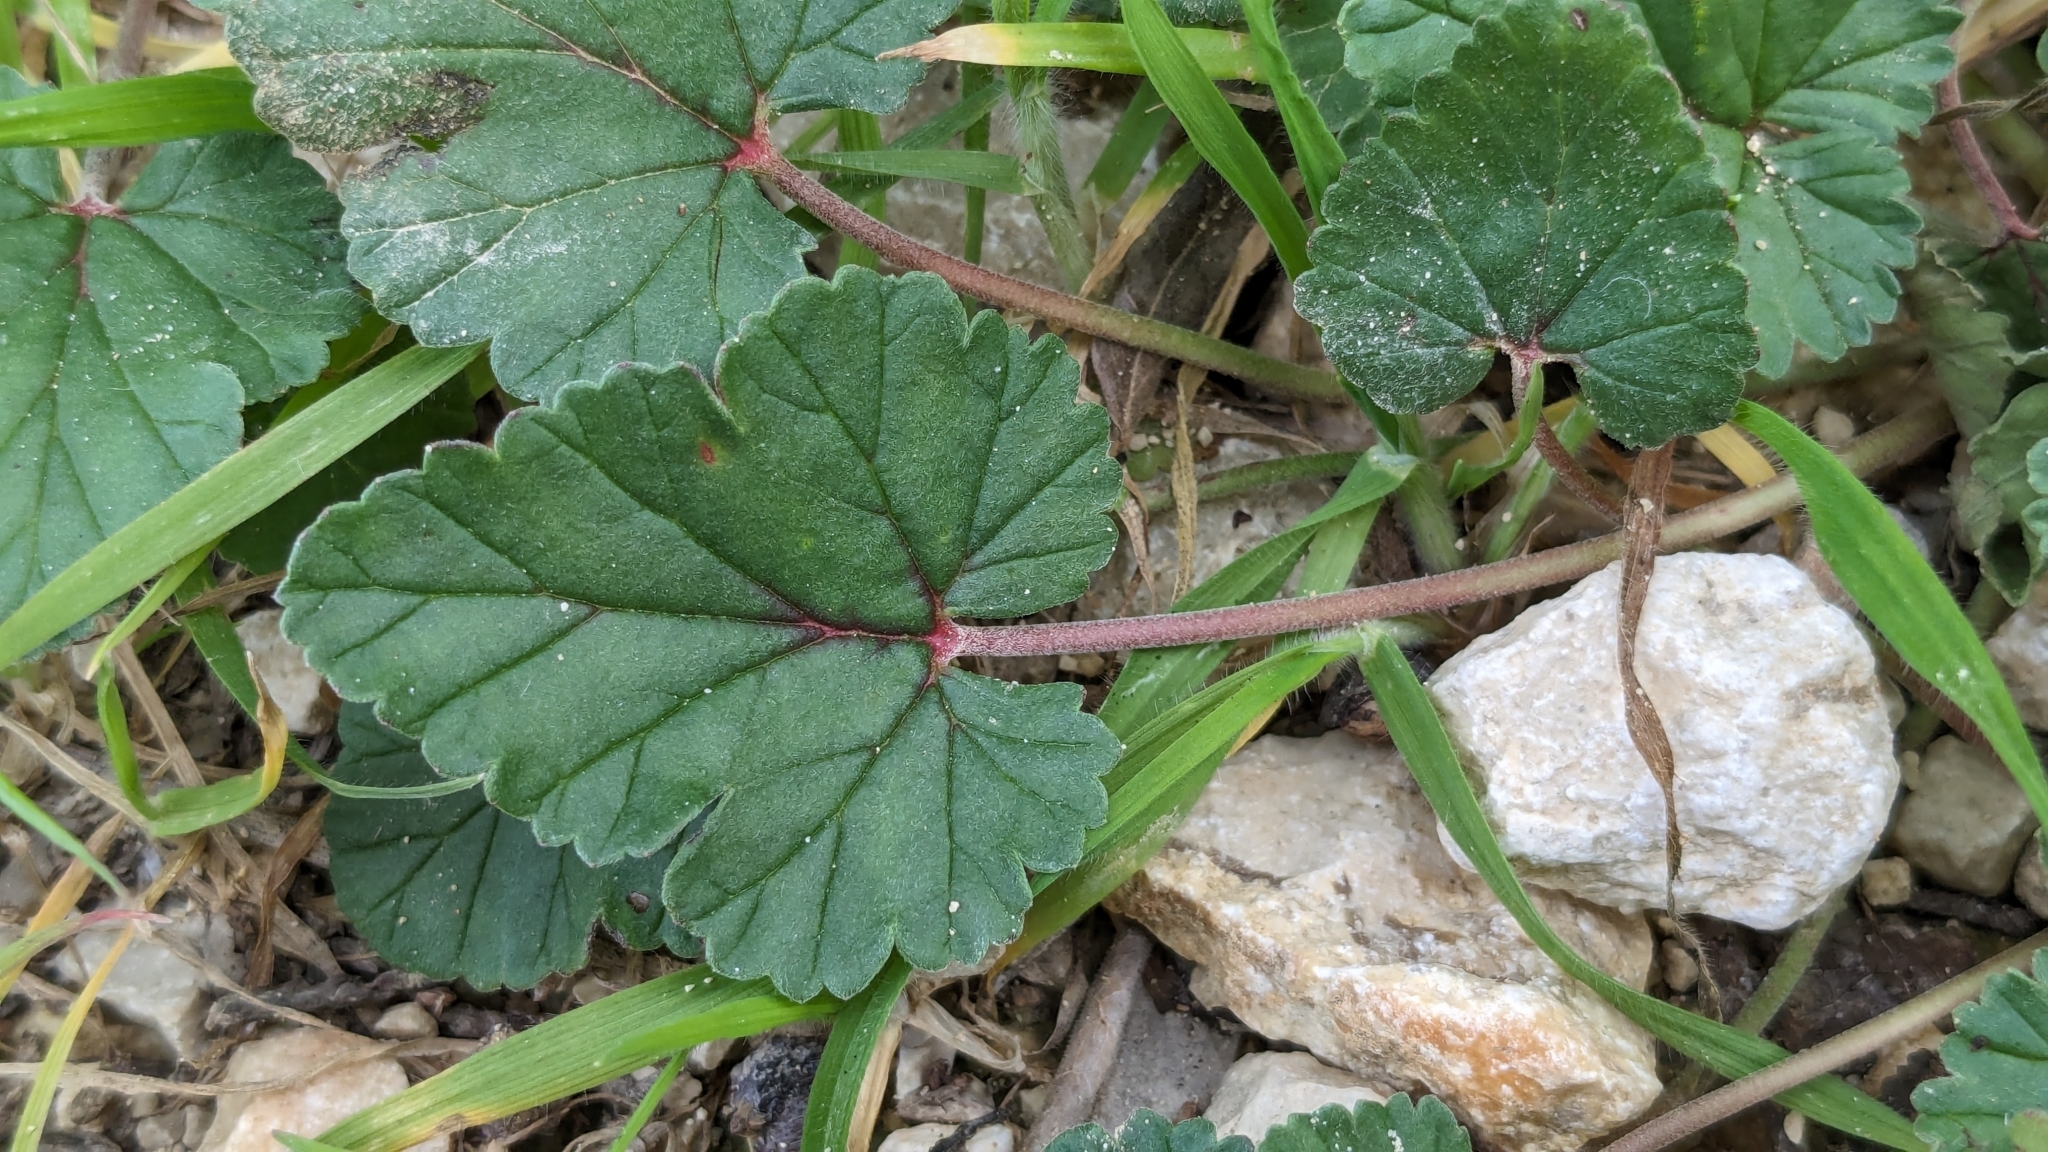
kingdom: Plantae
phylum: Tracheophyta
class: Magnoliopsida
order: Geraniales
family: Geraniaceae
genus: Erodium
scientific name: Erodium texanum
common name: Texas stork's-bill
